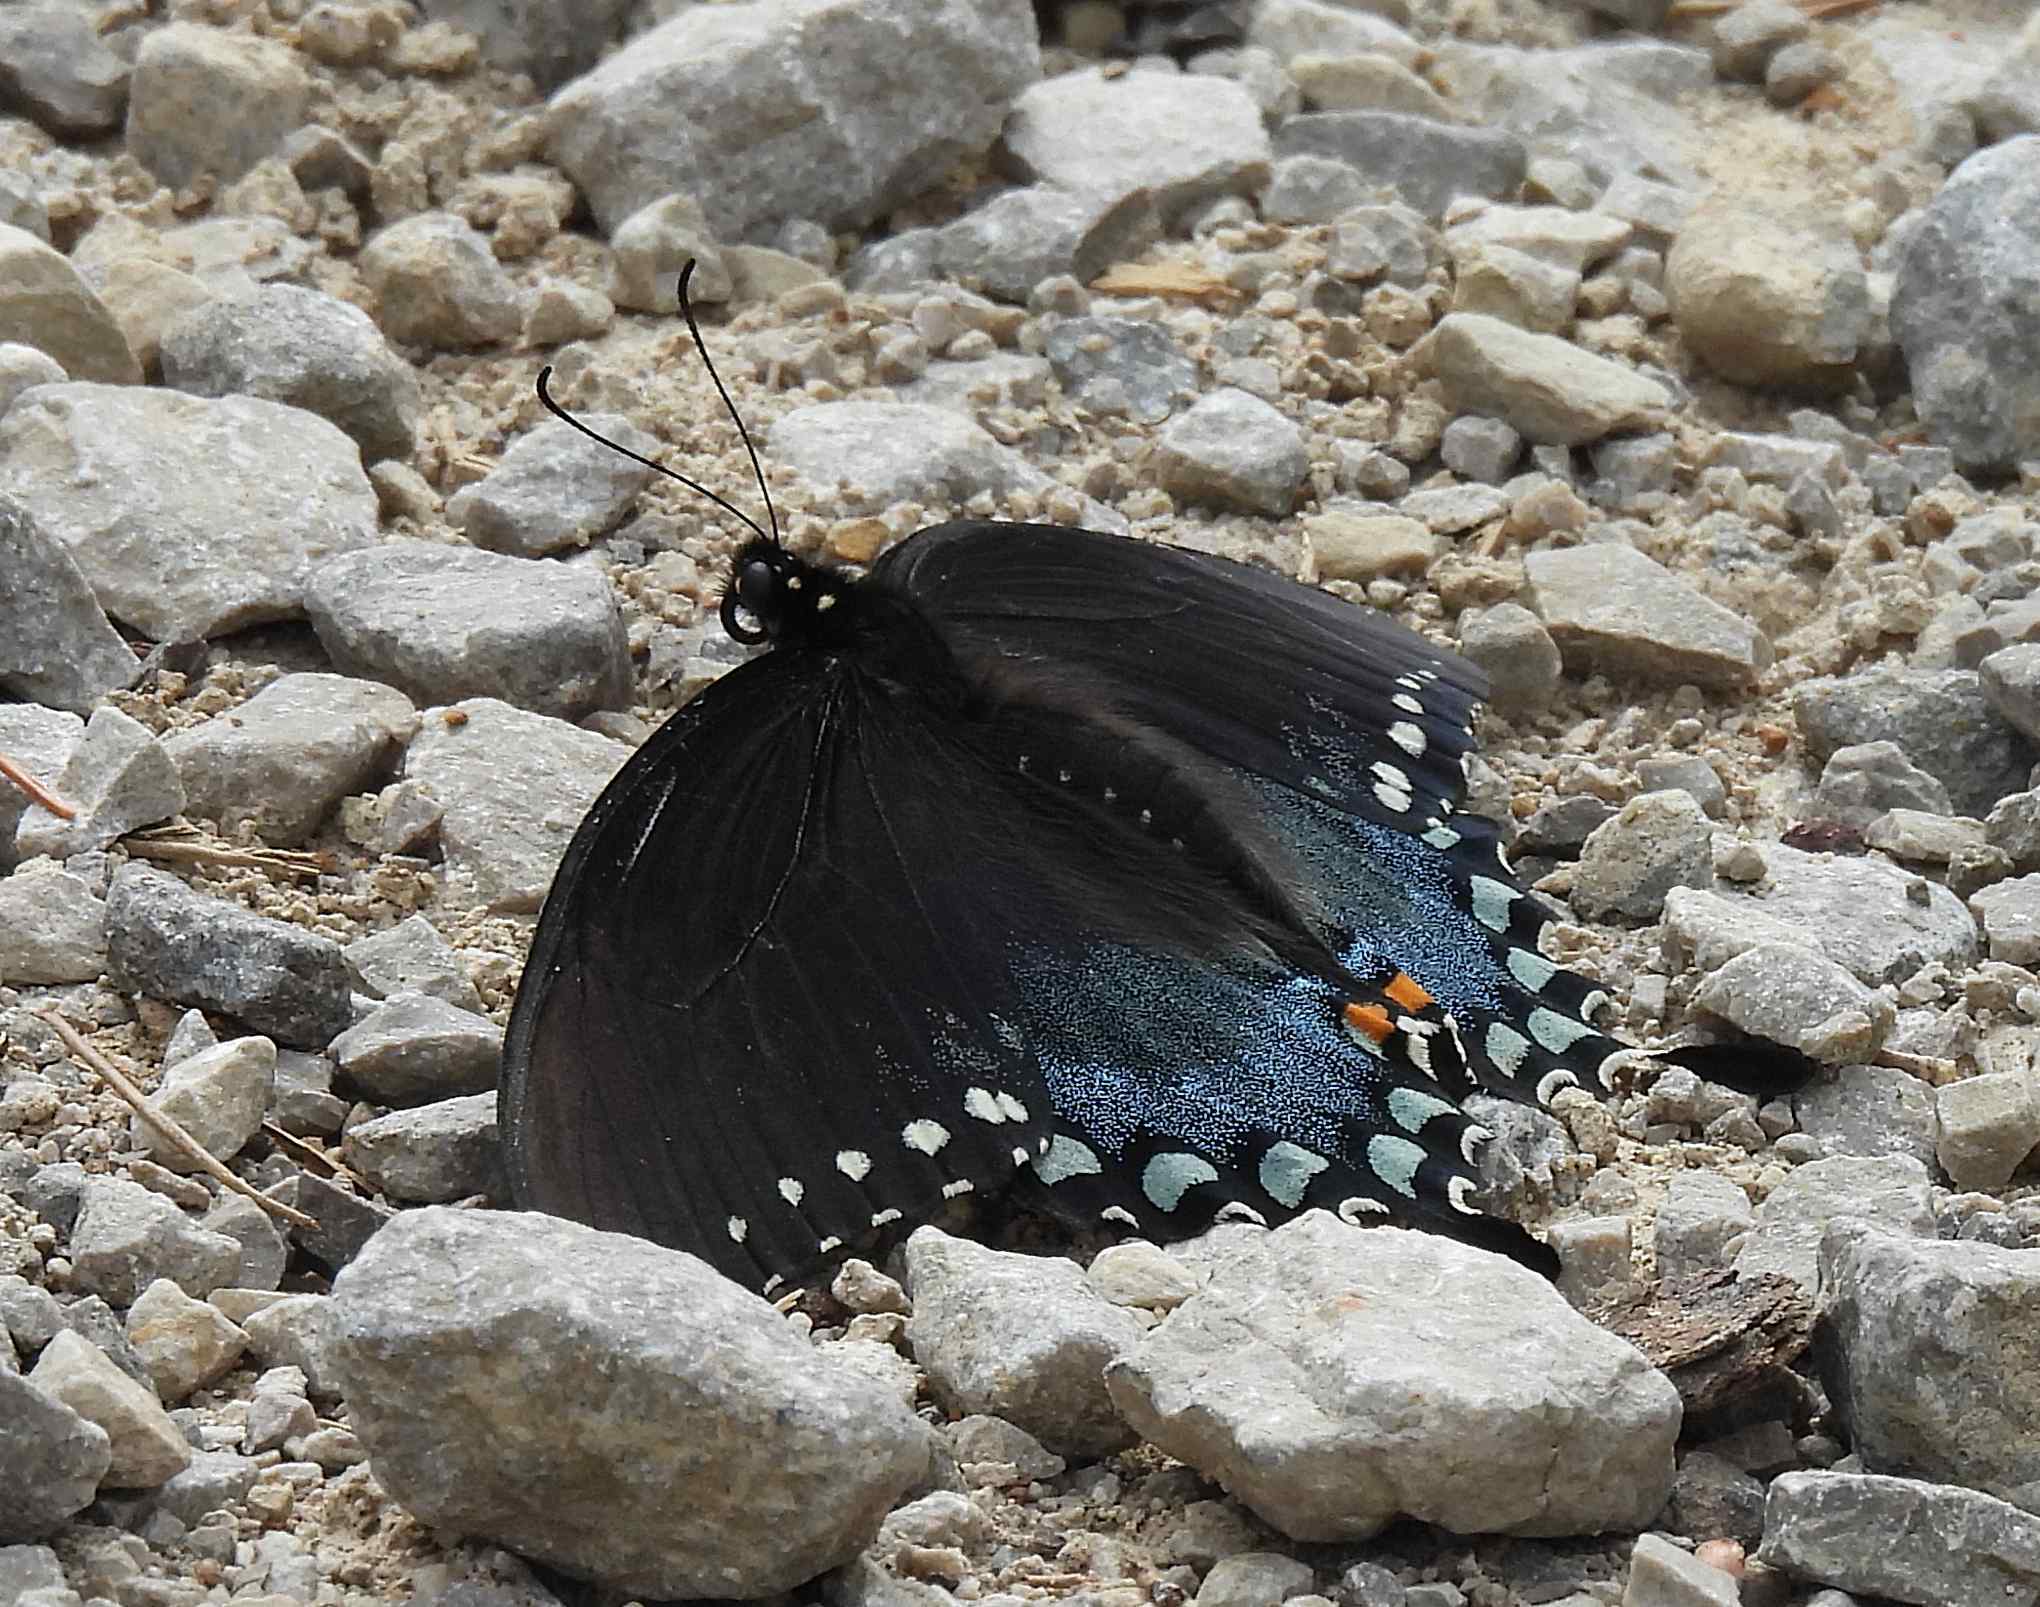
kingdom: Animalia
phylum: Arthropoda
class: Insecta
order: Lepidoptera
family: Papilionidae
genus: Papilio
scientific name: Papilio troilus
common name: Spicebush swallowtail
